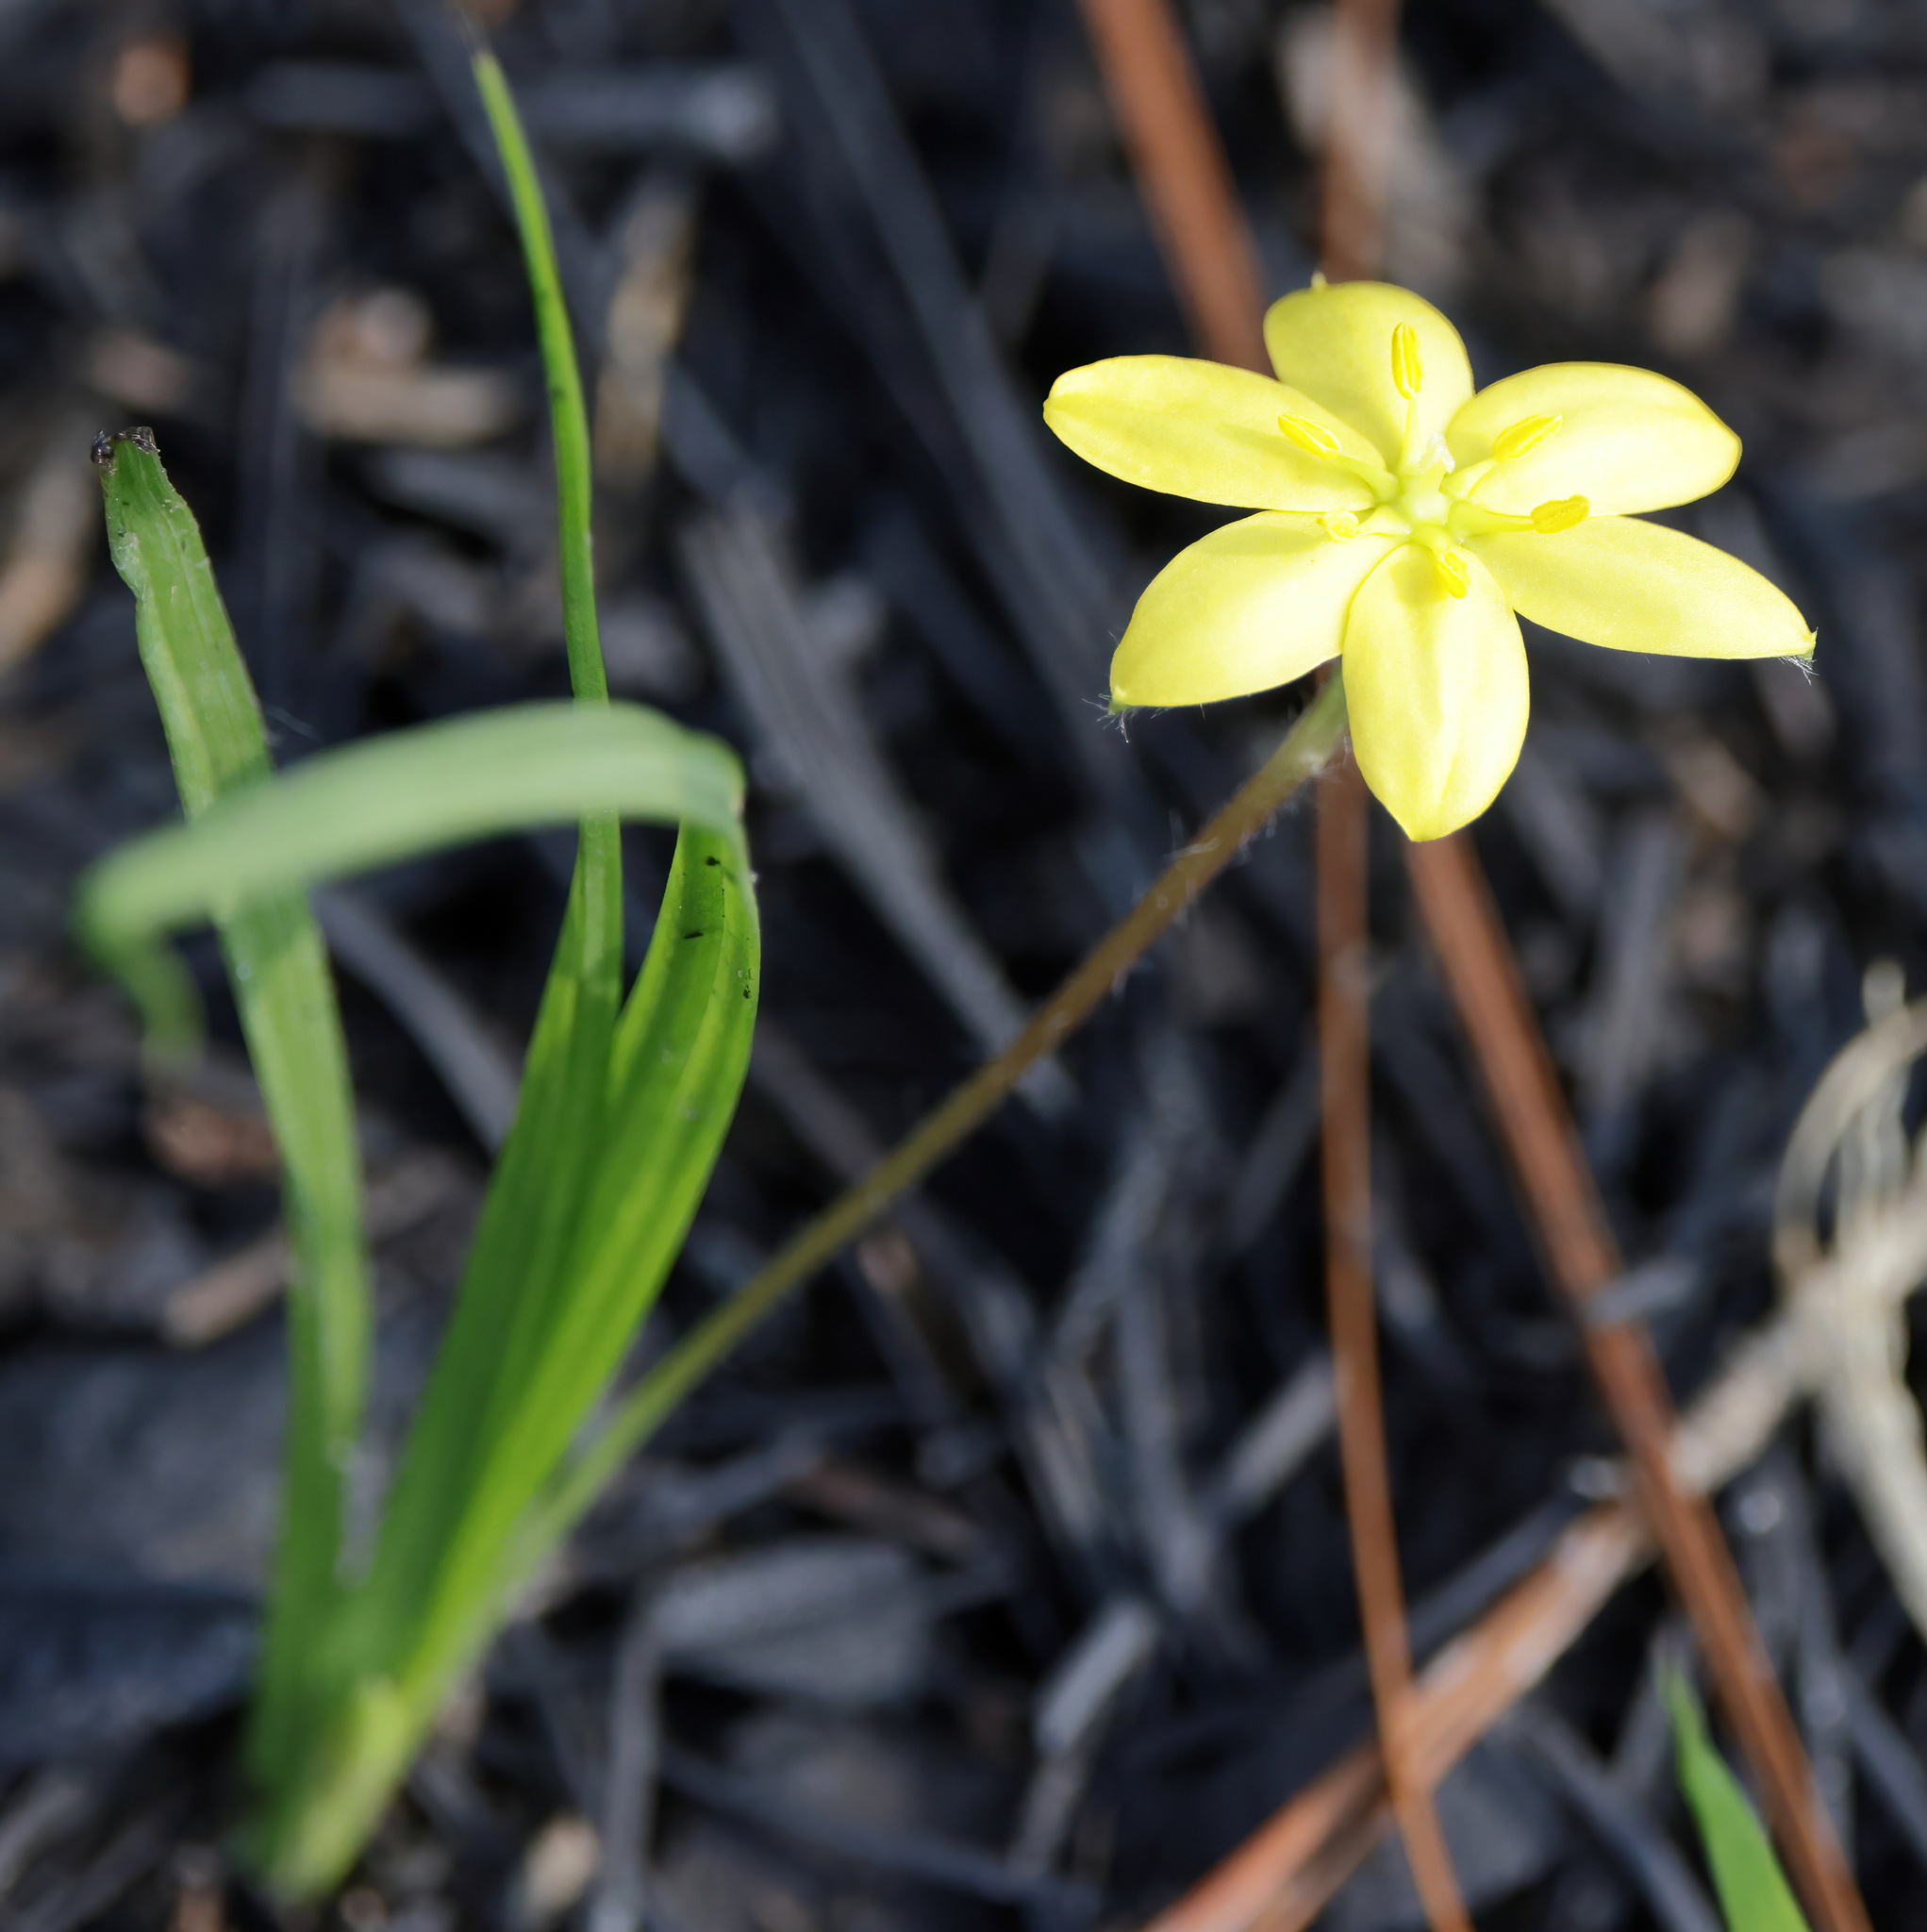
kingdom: Plantae
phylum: Tracheophyta
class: Liliopsida
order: Asparagales
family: Hypoxidaceae
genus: Hypoxis
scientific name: Hypoxis hirsuta
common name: Common goldstar
